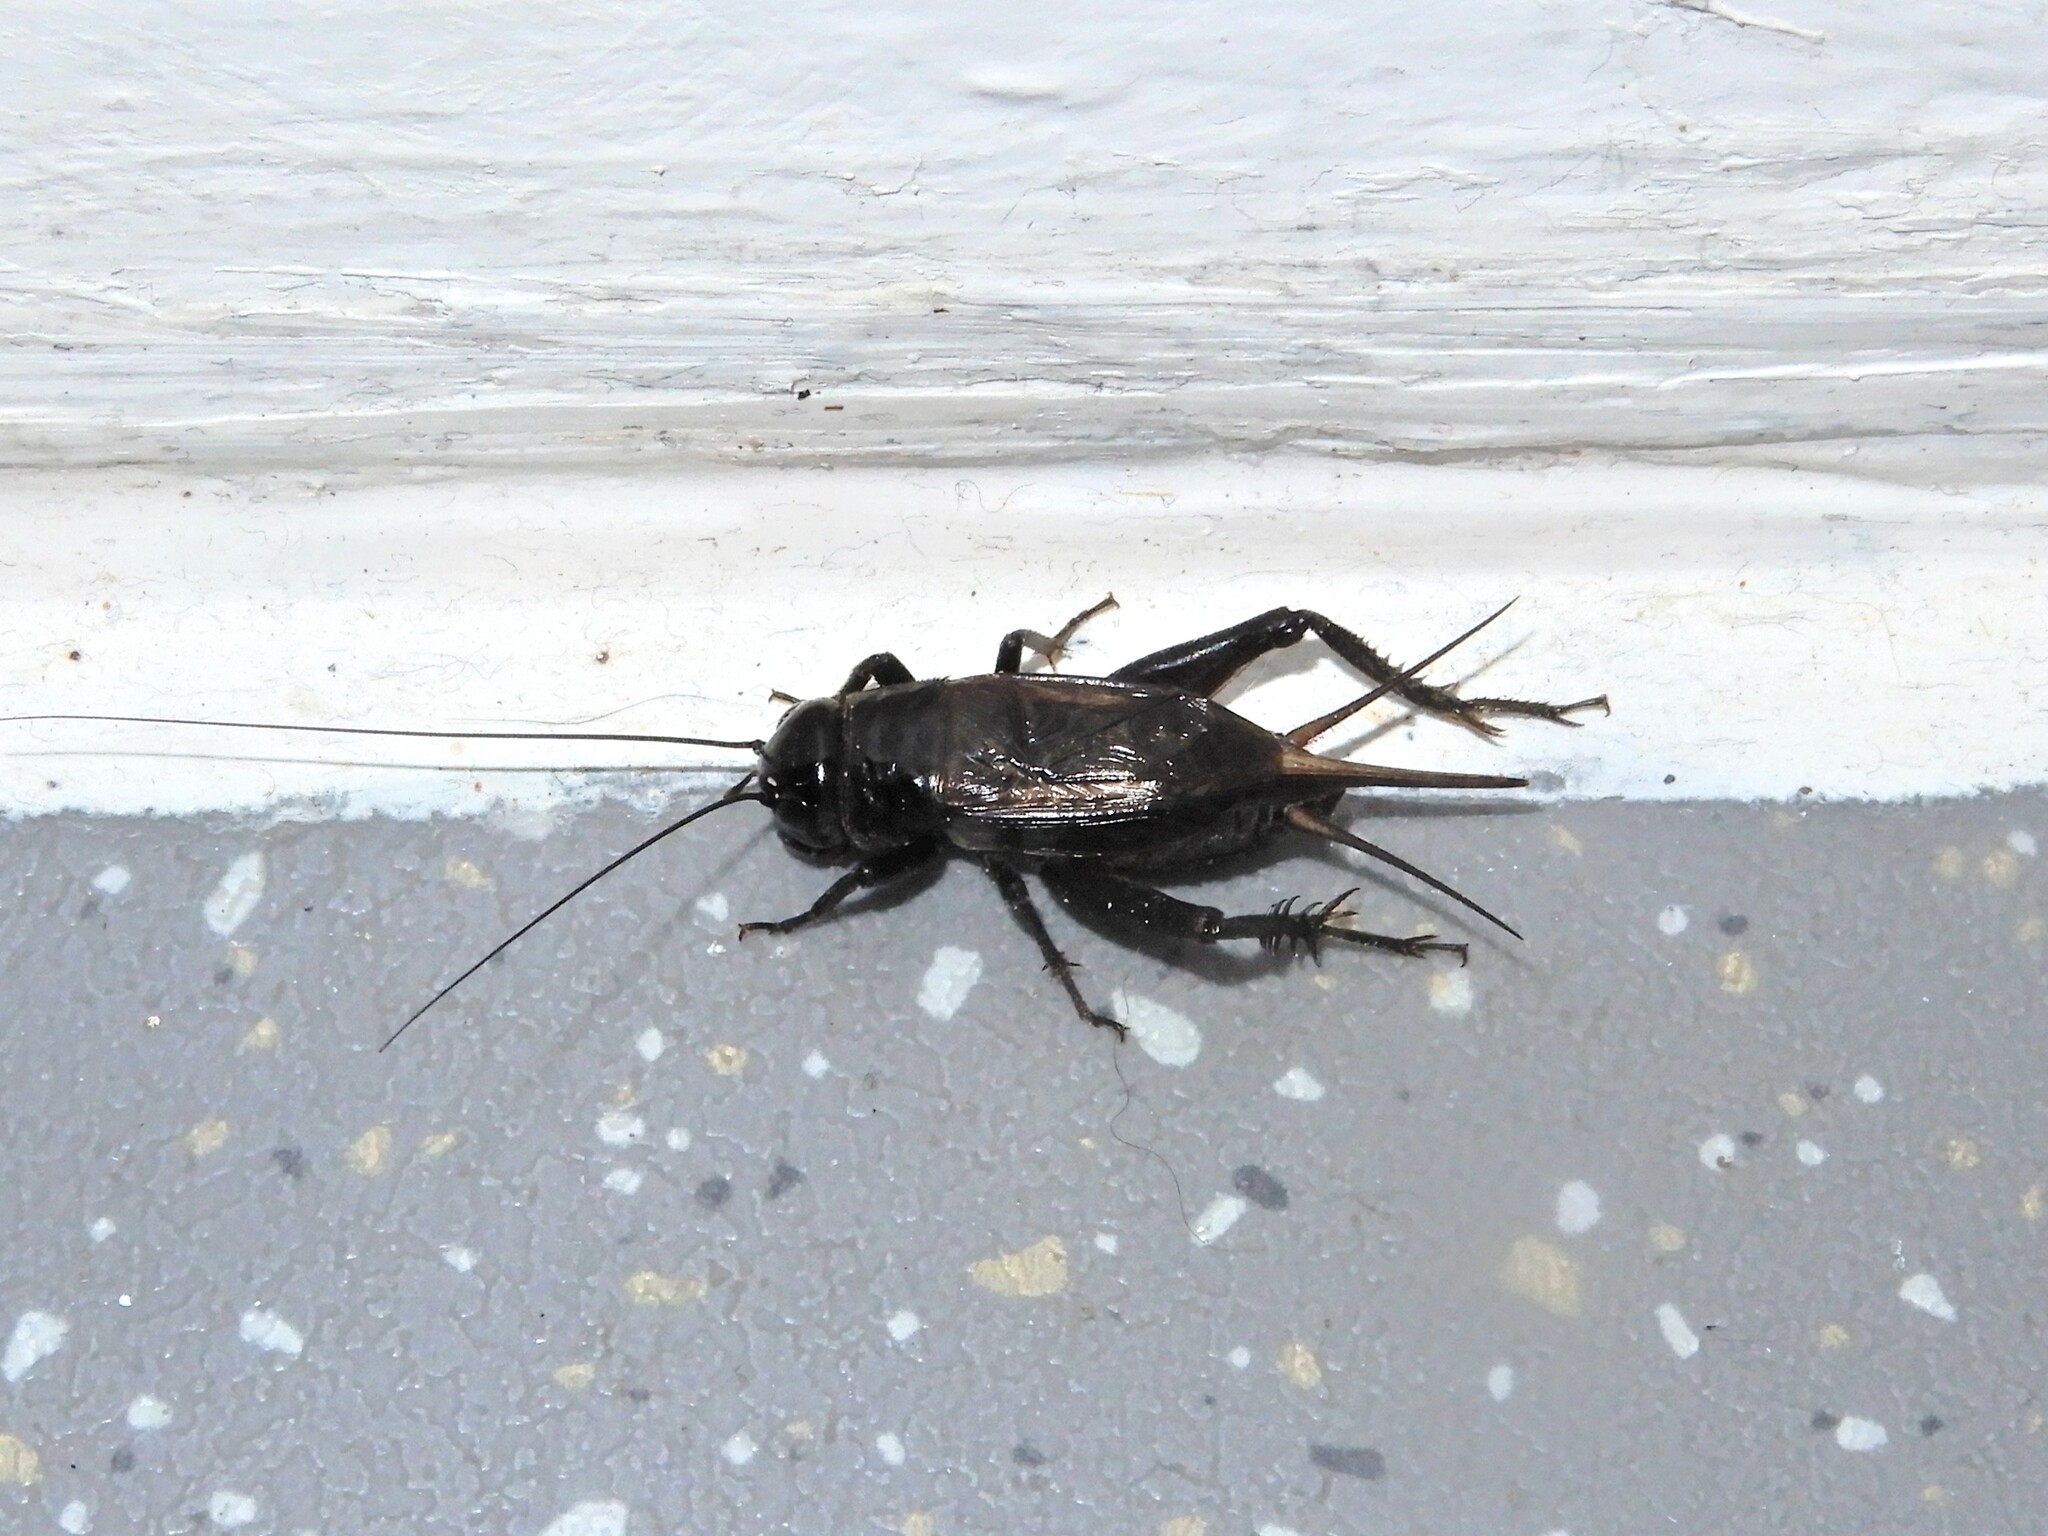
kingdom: Animalia
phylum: Arthropoda
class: Insecta
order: Orthoptera
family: Gryllidae
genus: Teleogryllus
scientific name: Teleogryllus commodus
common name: Black field cricket
